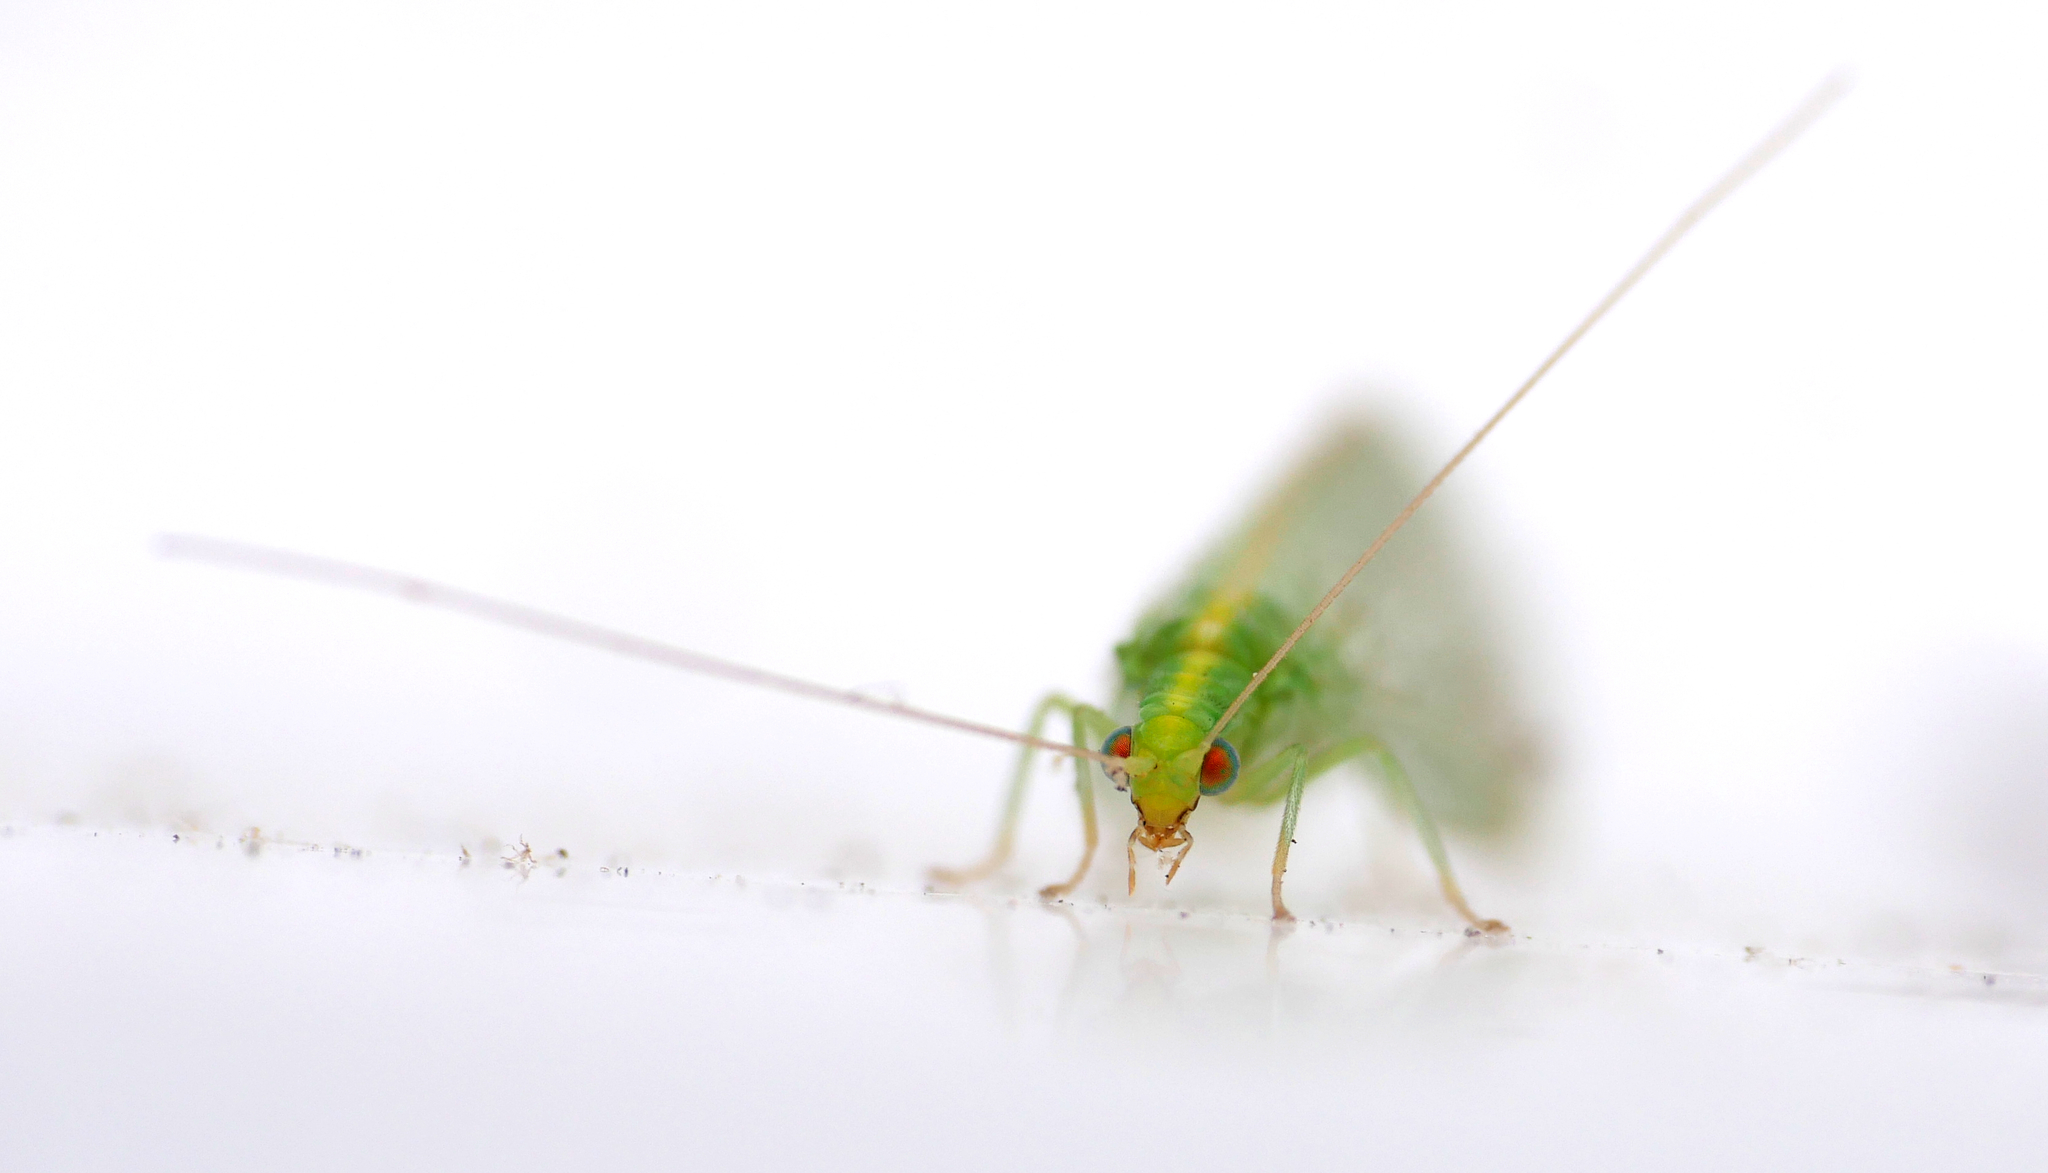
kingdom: Animalia
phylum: Arthropoda
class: Insecta
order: Neuroptera
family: Chrysopidae
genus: Chrysoperla
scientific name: Chrysoperla
